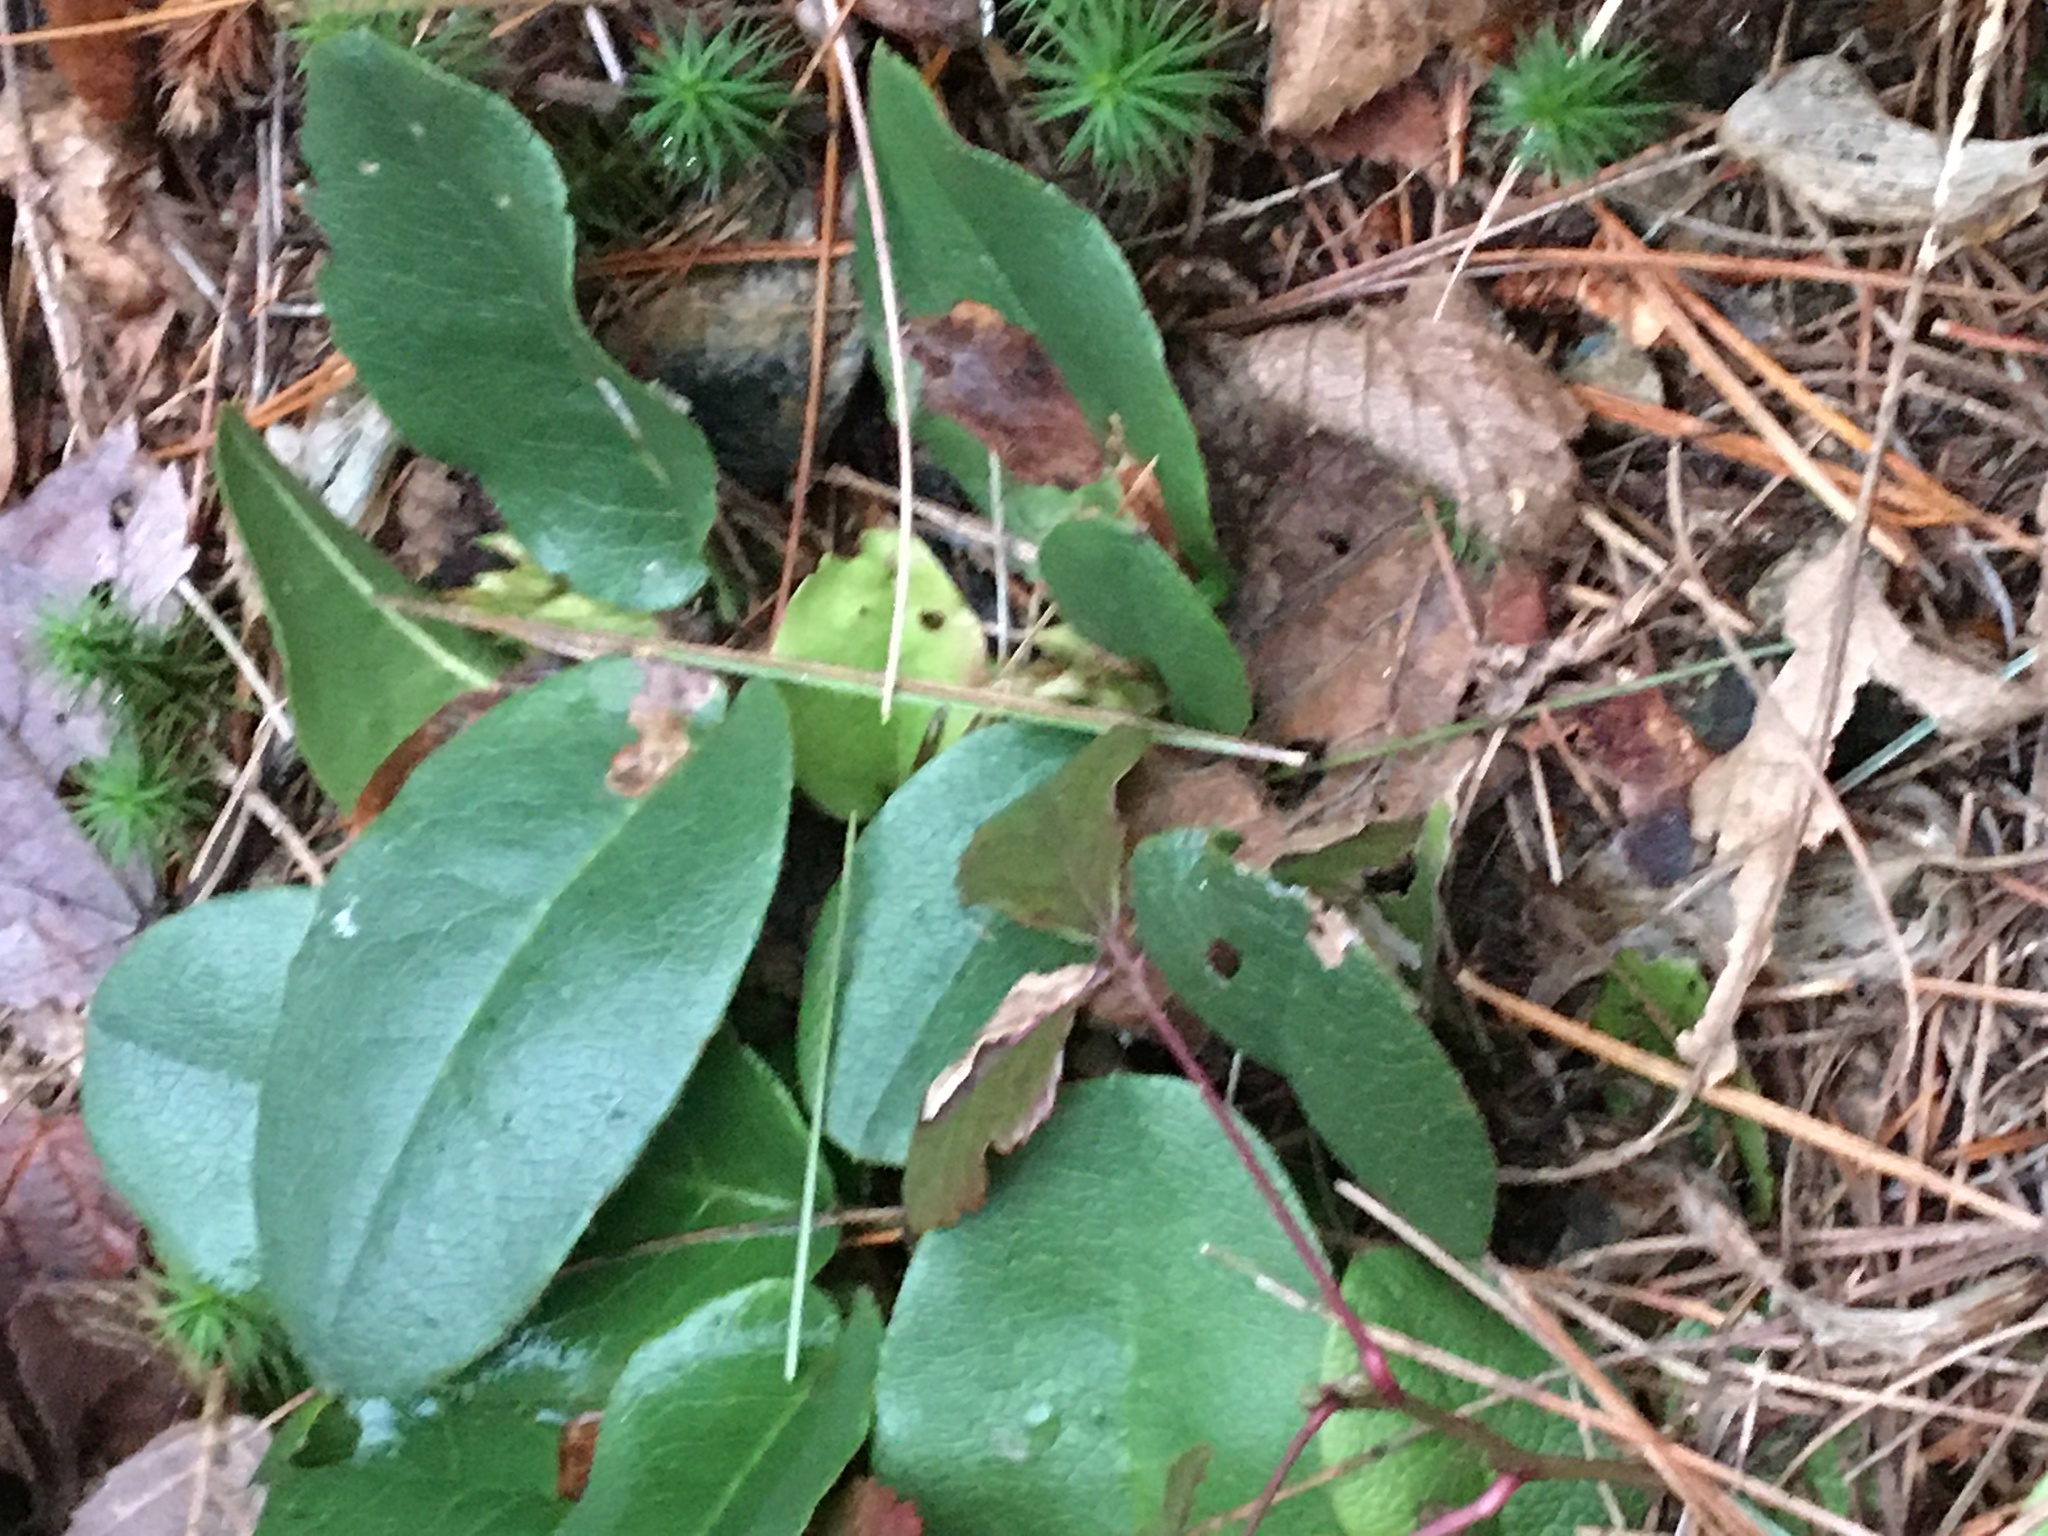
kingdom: Plantae
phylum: Tracheophyta
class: Magnoliopsida
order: Ericales
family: Ericaceae
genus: Epigaea
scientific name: Epigaea repens
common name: Gravelroot
